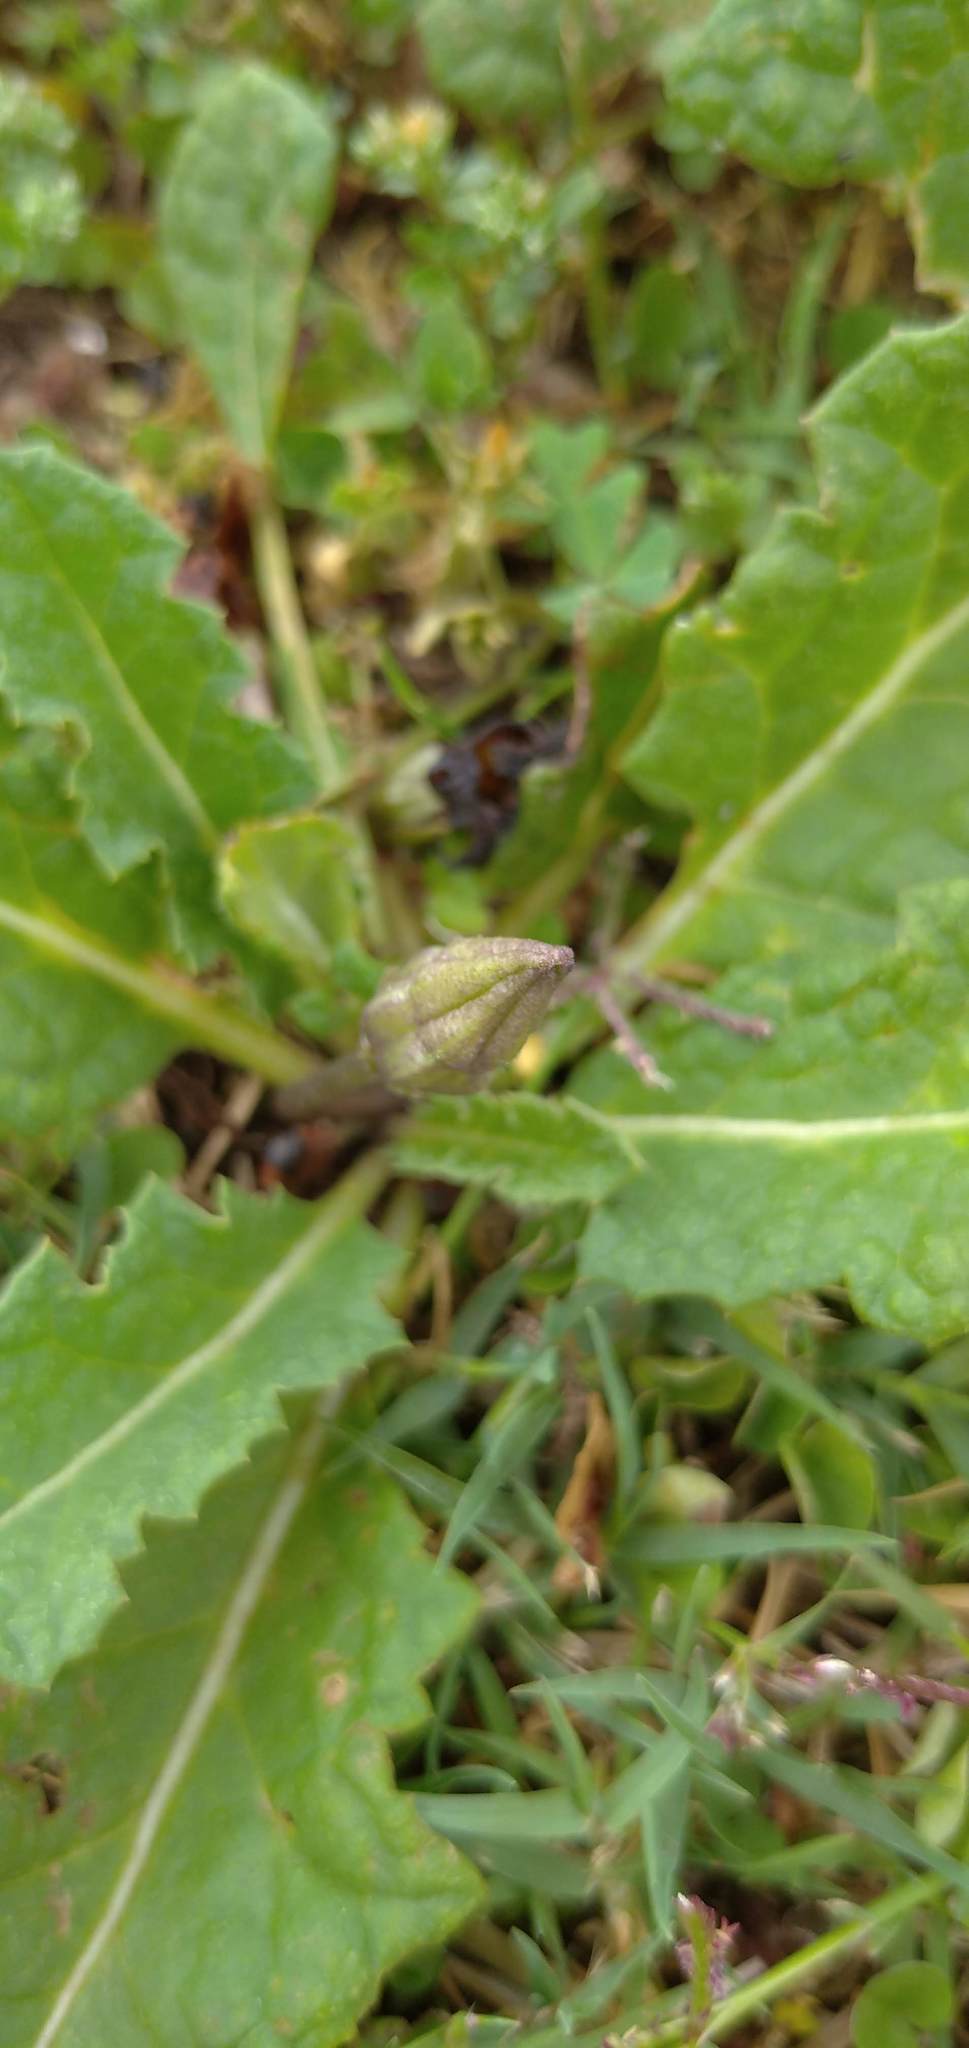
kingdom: Plantae
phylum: Tracheophyta
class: Magnoliopsida
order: Solanales
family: Solanaceae
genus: Jaborosa
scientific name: Jaborosa runcinata
